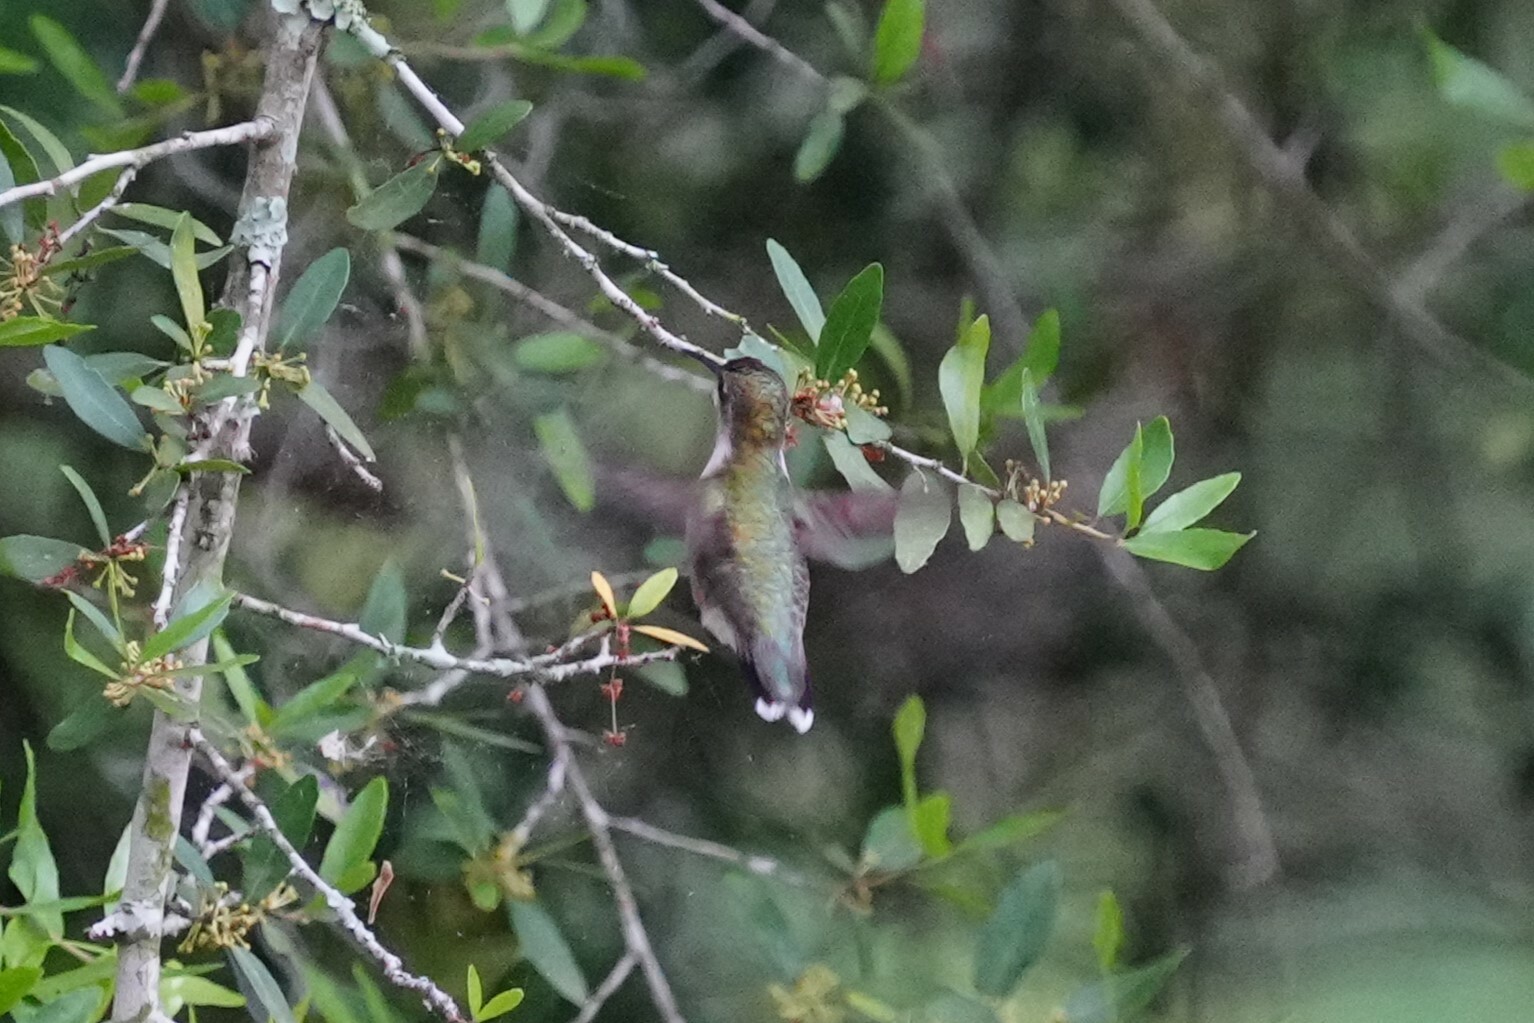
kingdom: Animalia
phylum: Chordata
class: Aves
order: Apodiformes
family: Trochilidae
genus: Archilochus
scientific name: Archilochus colubris
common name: Ruby-throated hummingbird
